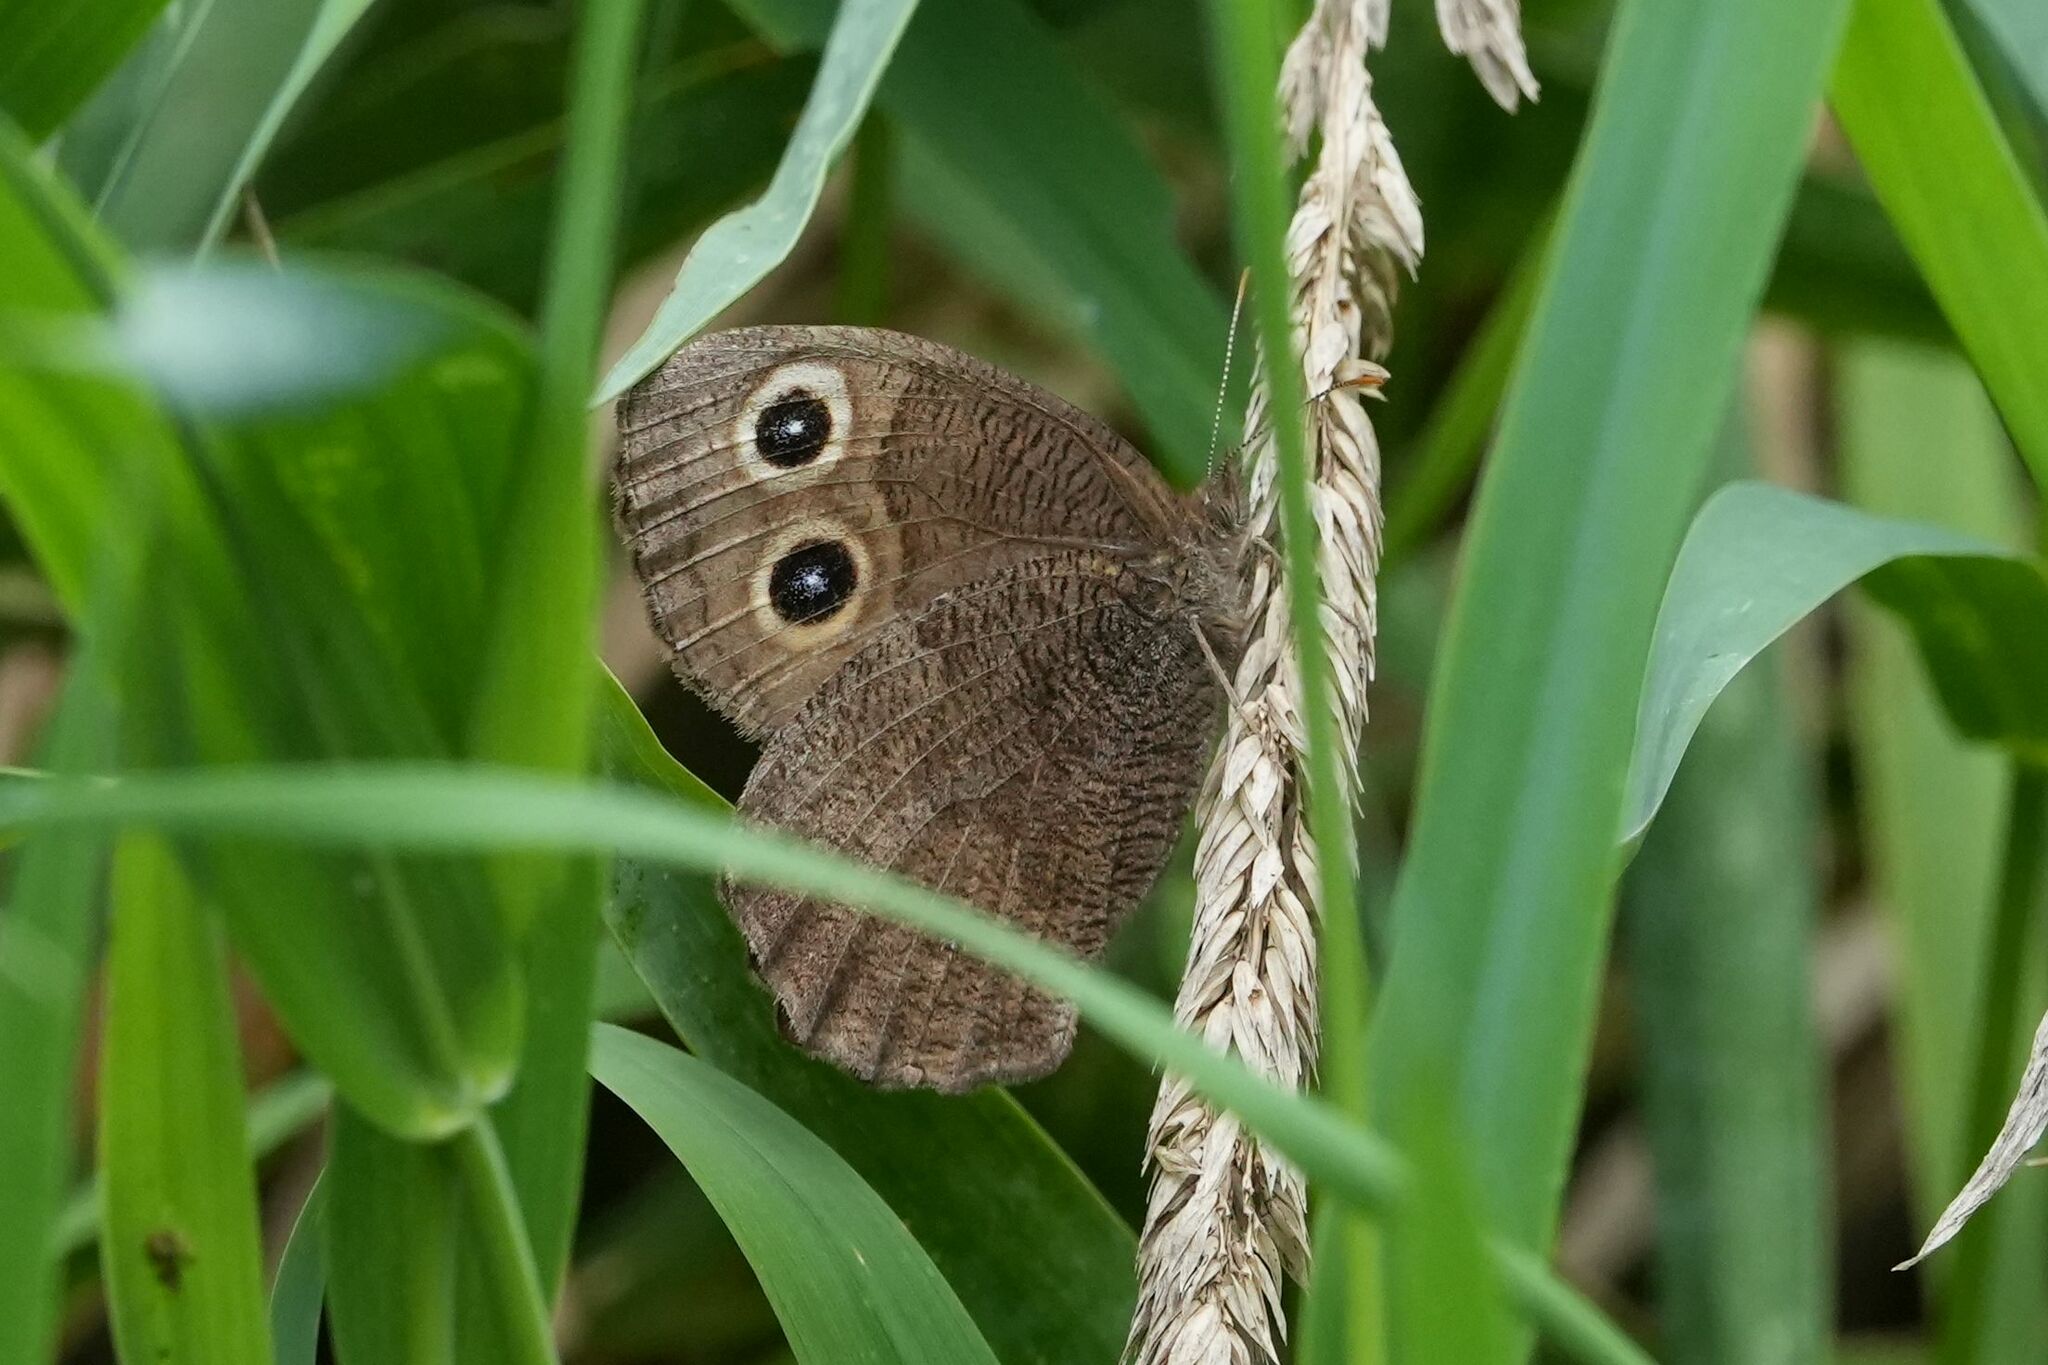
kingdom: Animalia
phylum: Arthropoda
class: Insecta
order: Lepidoptera
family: Nymphalidae
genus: Cercyonis
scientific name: Cercyonis pegala
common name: Common wood-nymph
